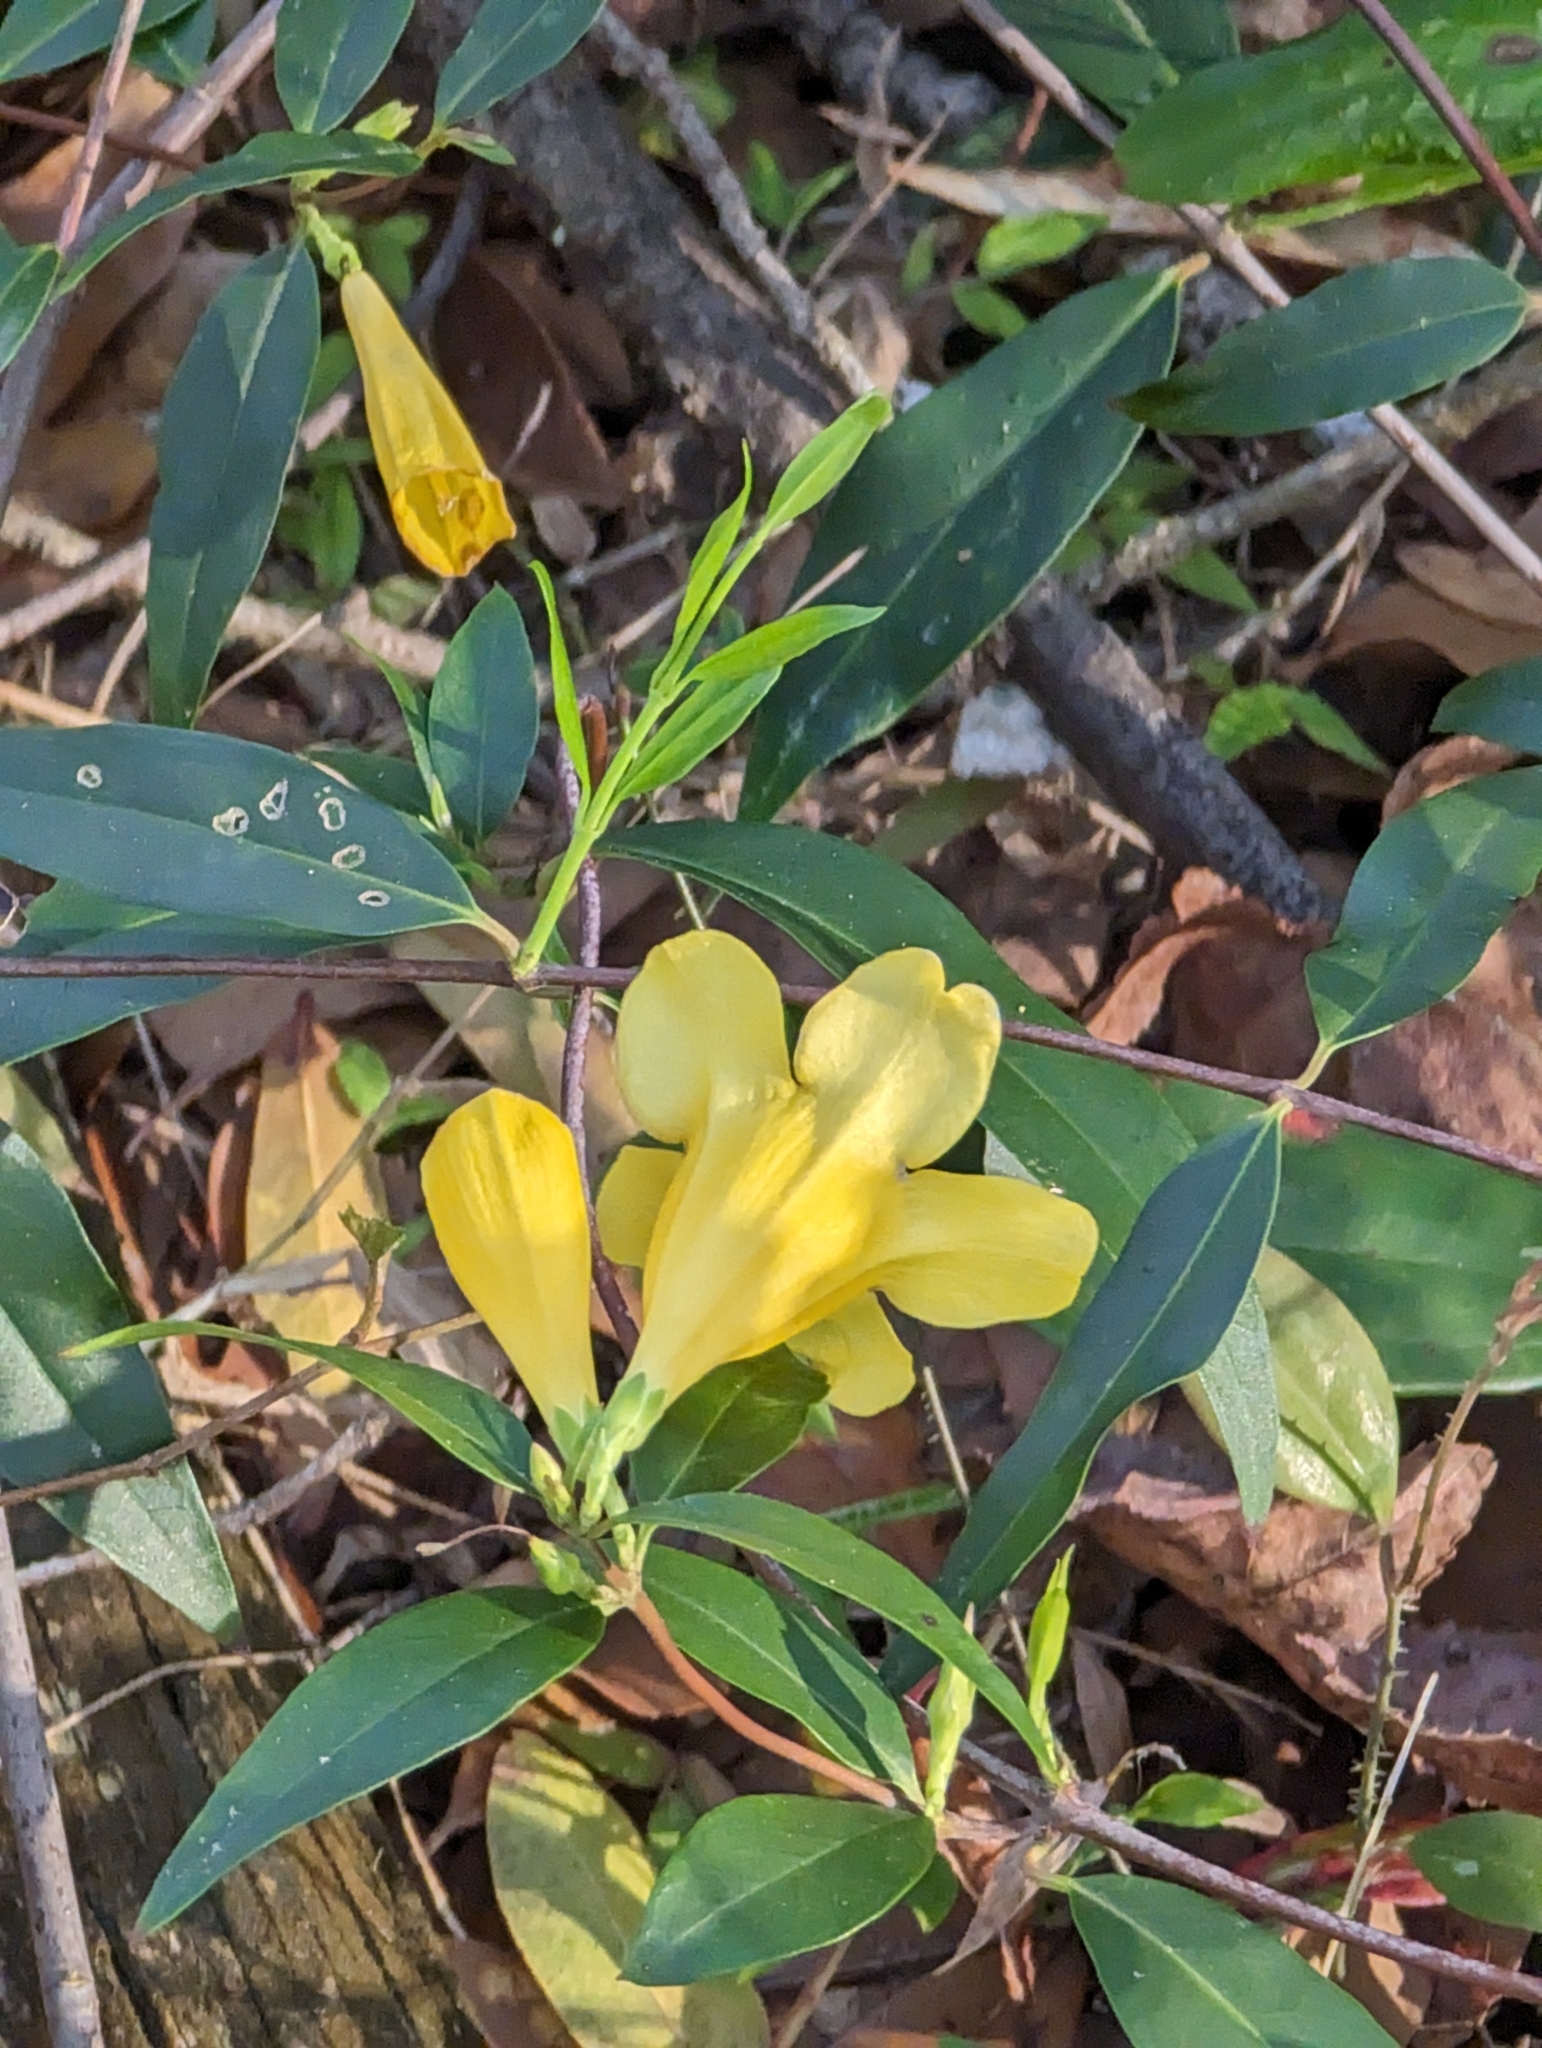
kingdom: Plantae
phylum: Tracheophyta
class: Magnoliopsida
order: Gentianales
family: Gelsemiaceae
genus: Gelsemium
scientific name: Gelsemium sempervirens
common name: Carolina-jasmine
